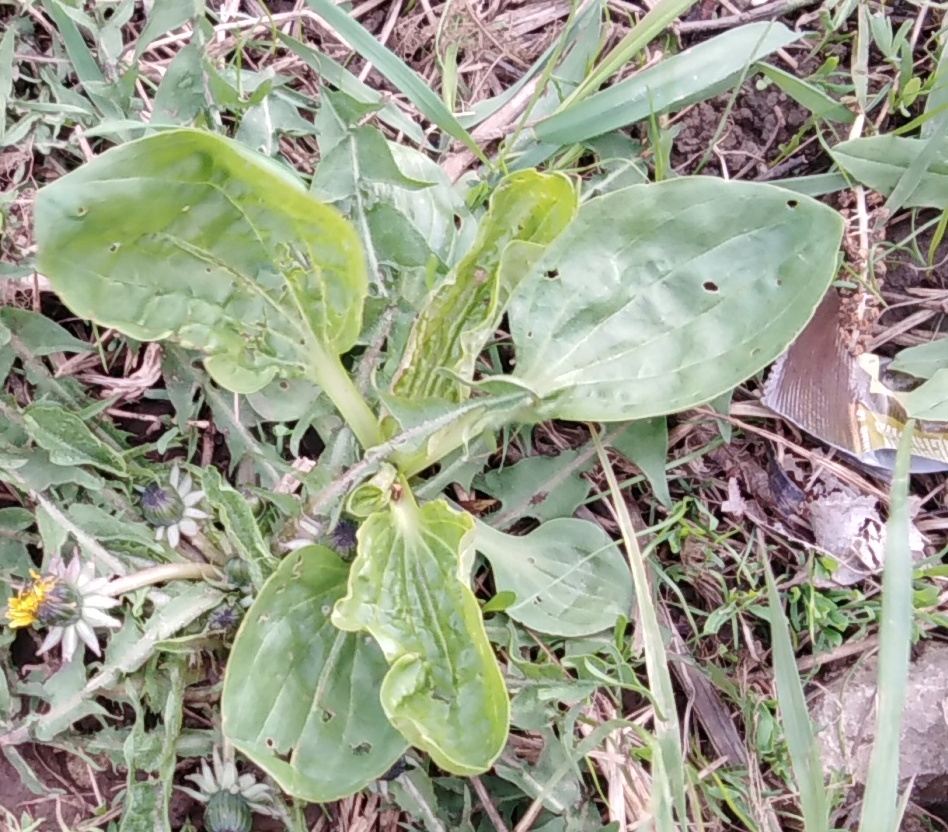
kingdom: Plantae
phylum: Tracheophyta
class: Magnoliopsida
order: Lamiales
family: Plantaginaceae
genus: Plantago
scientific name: Plantago major
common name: Common plantain
